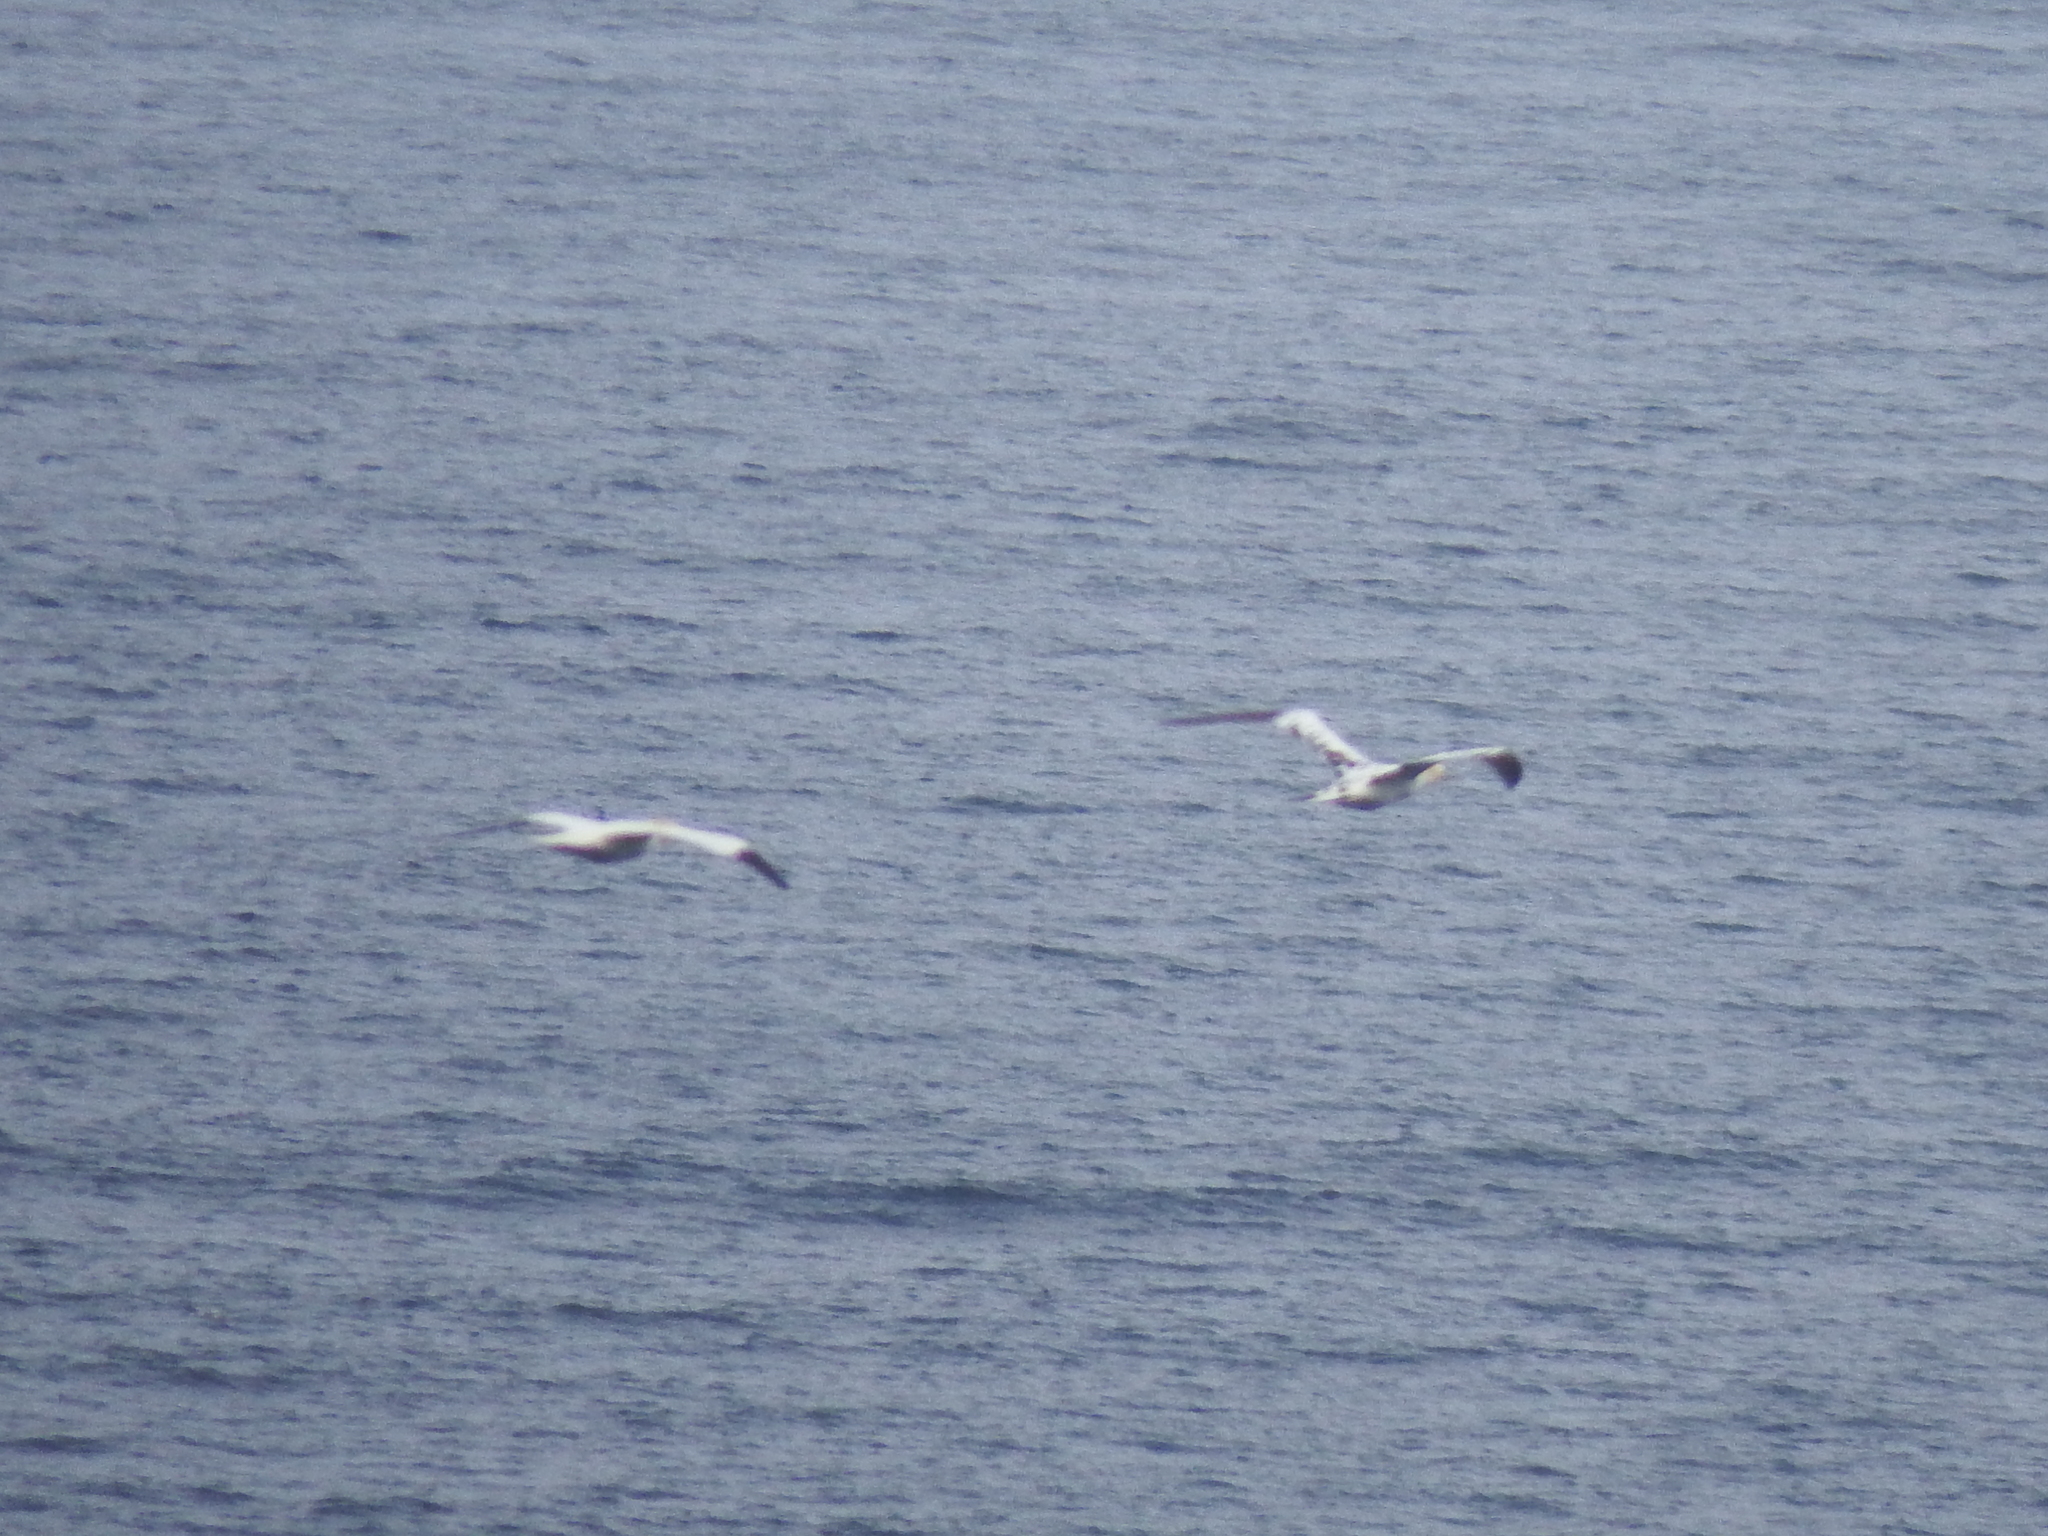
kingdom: Animalia
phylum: Chordata
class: Aves
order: Suliformes
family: Sulidae
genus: Morus
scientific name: Morus bassanus
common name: Northern gannet
